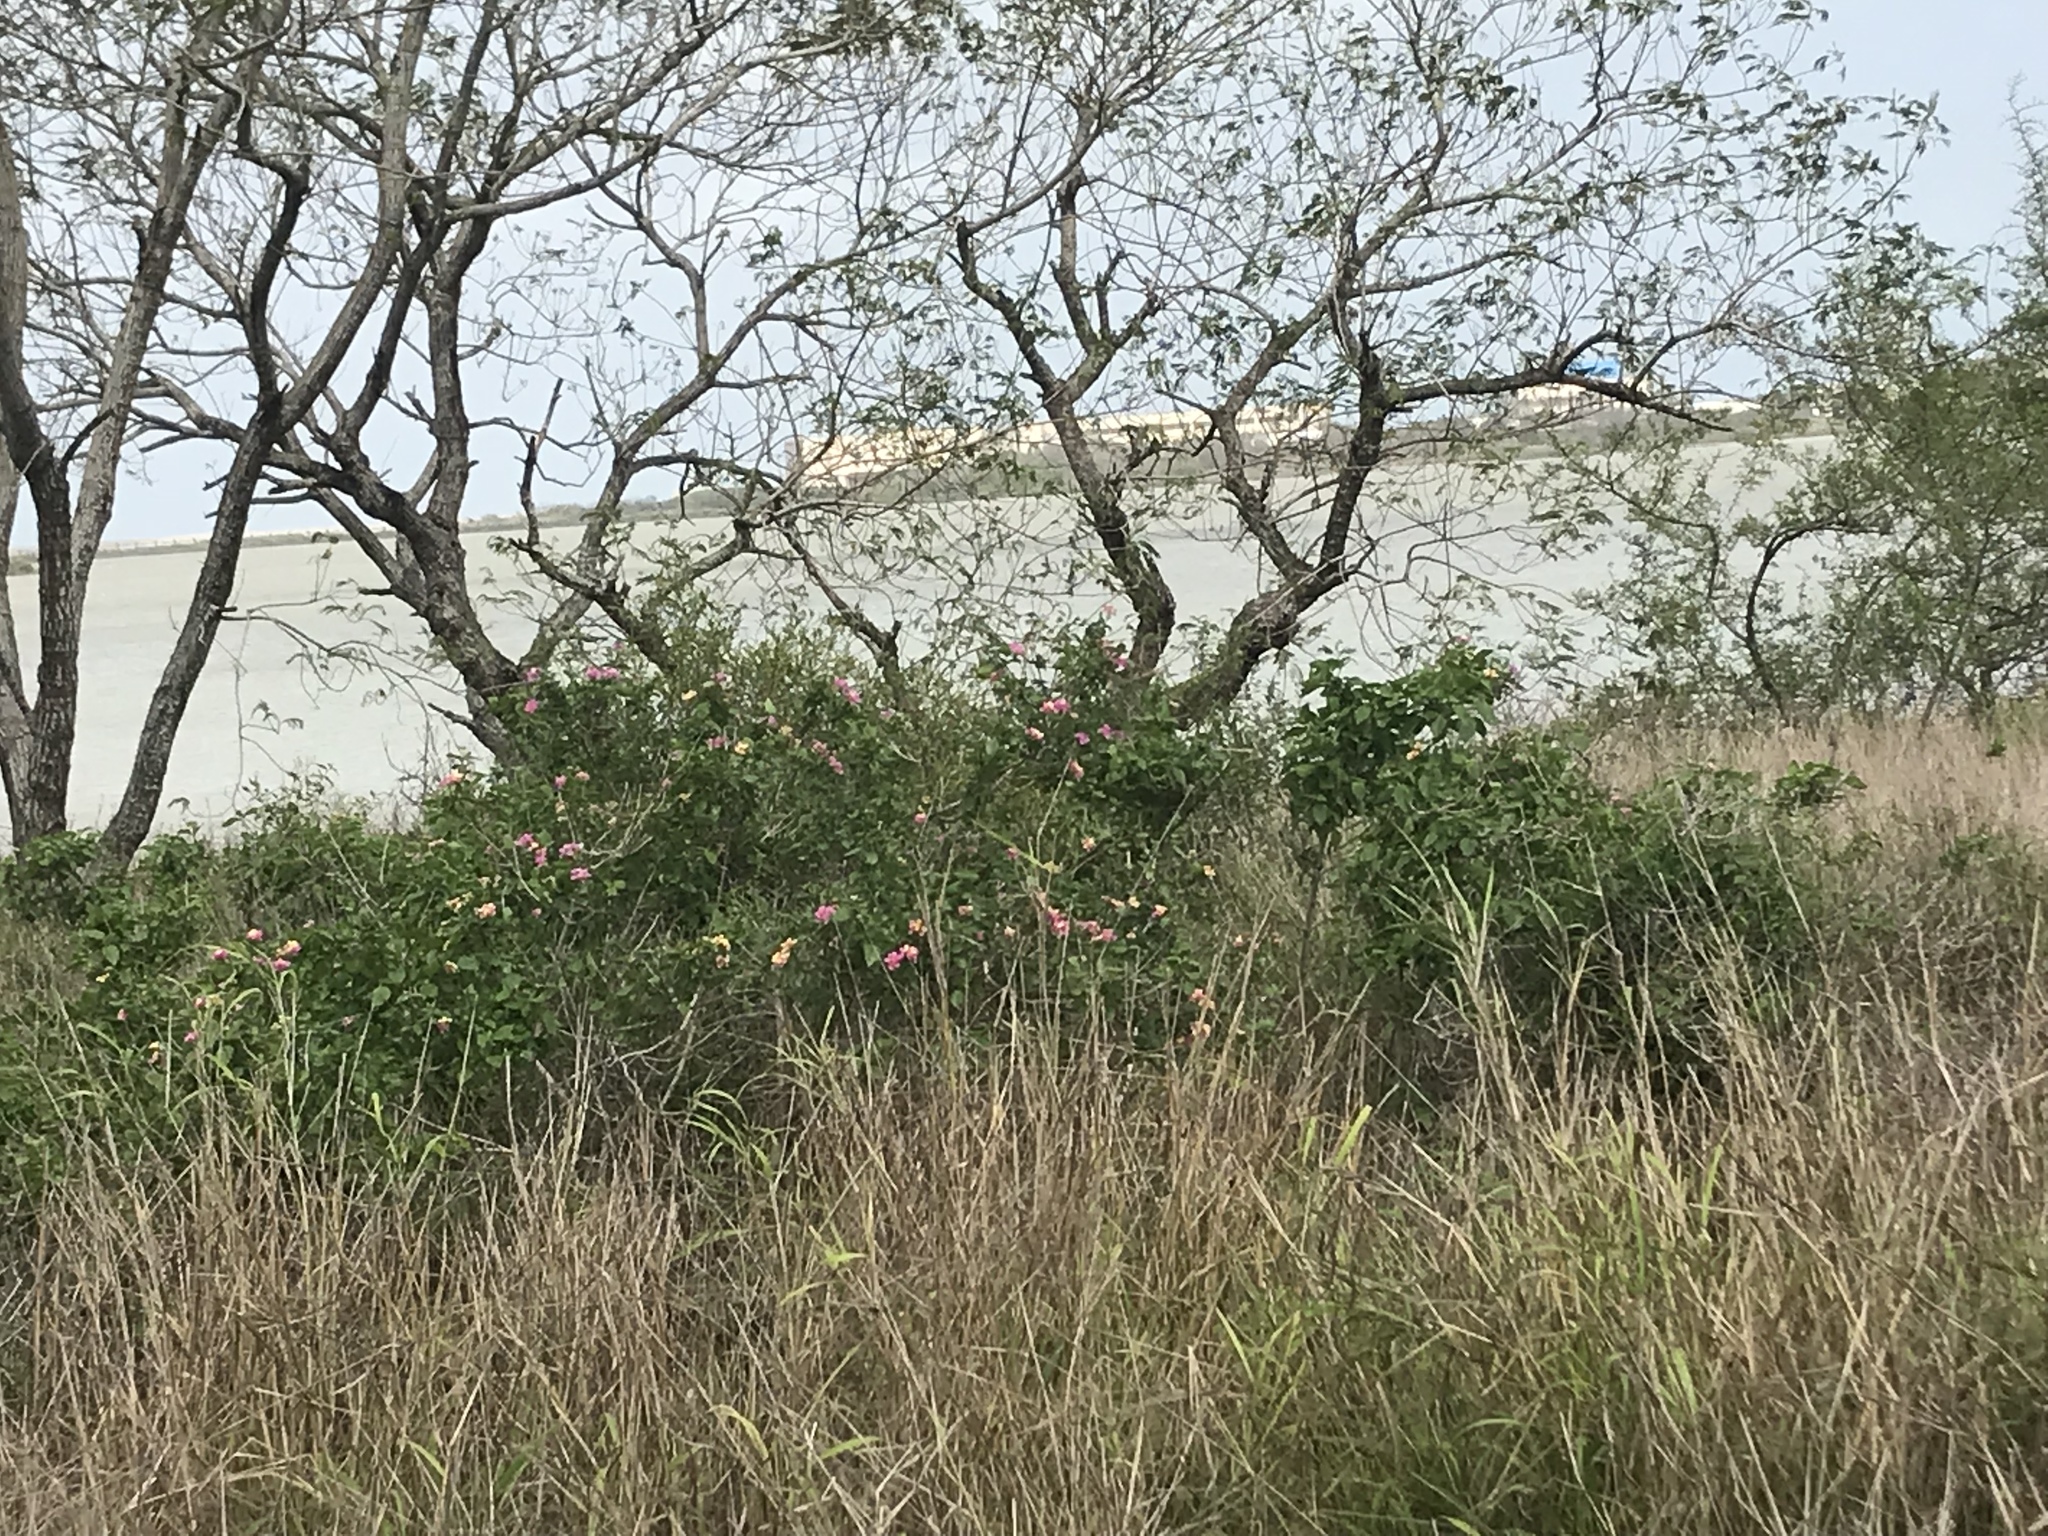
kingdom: Plantae
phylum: Tracheophyta
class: Magnoliopsida
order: Lamiales
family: Verbenaceae
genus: Lantana
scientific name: Lantana strigocamara
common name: Lantana
